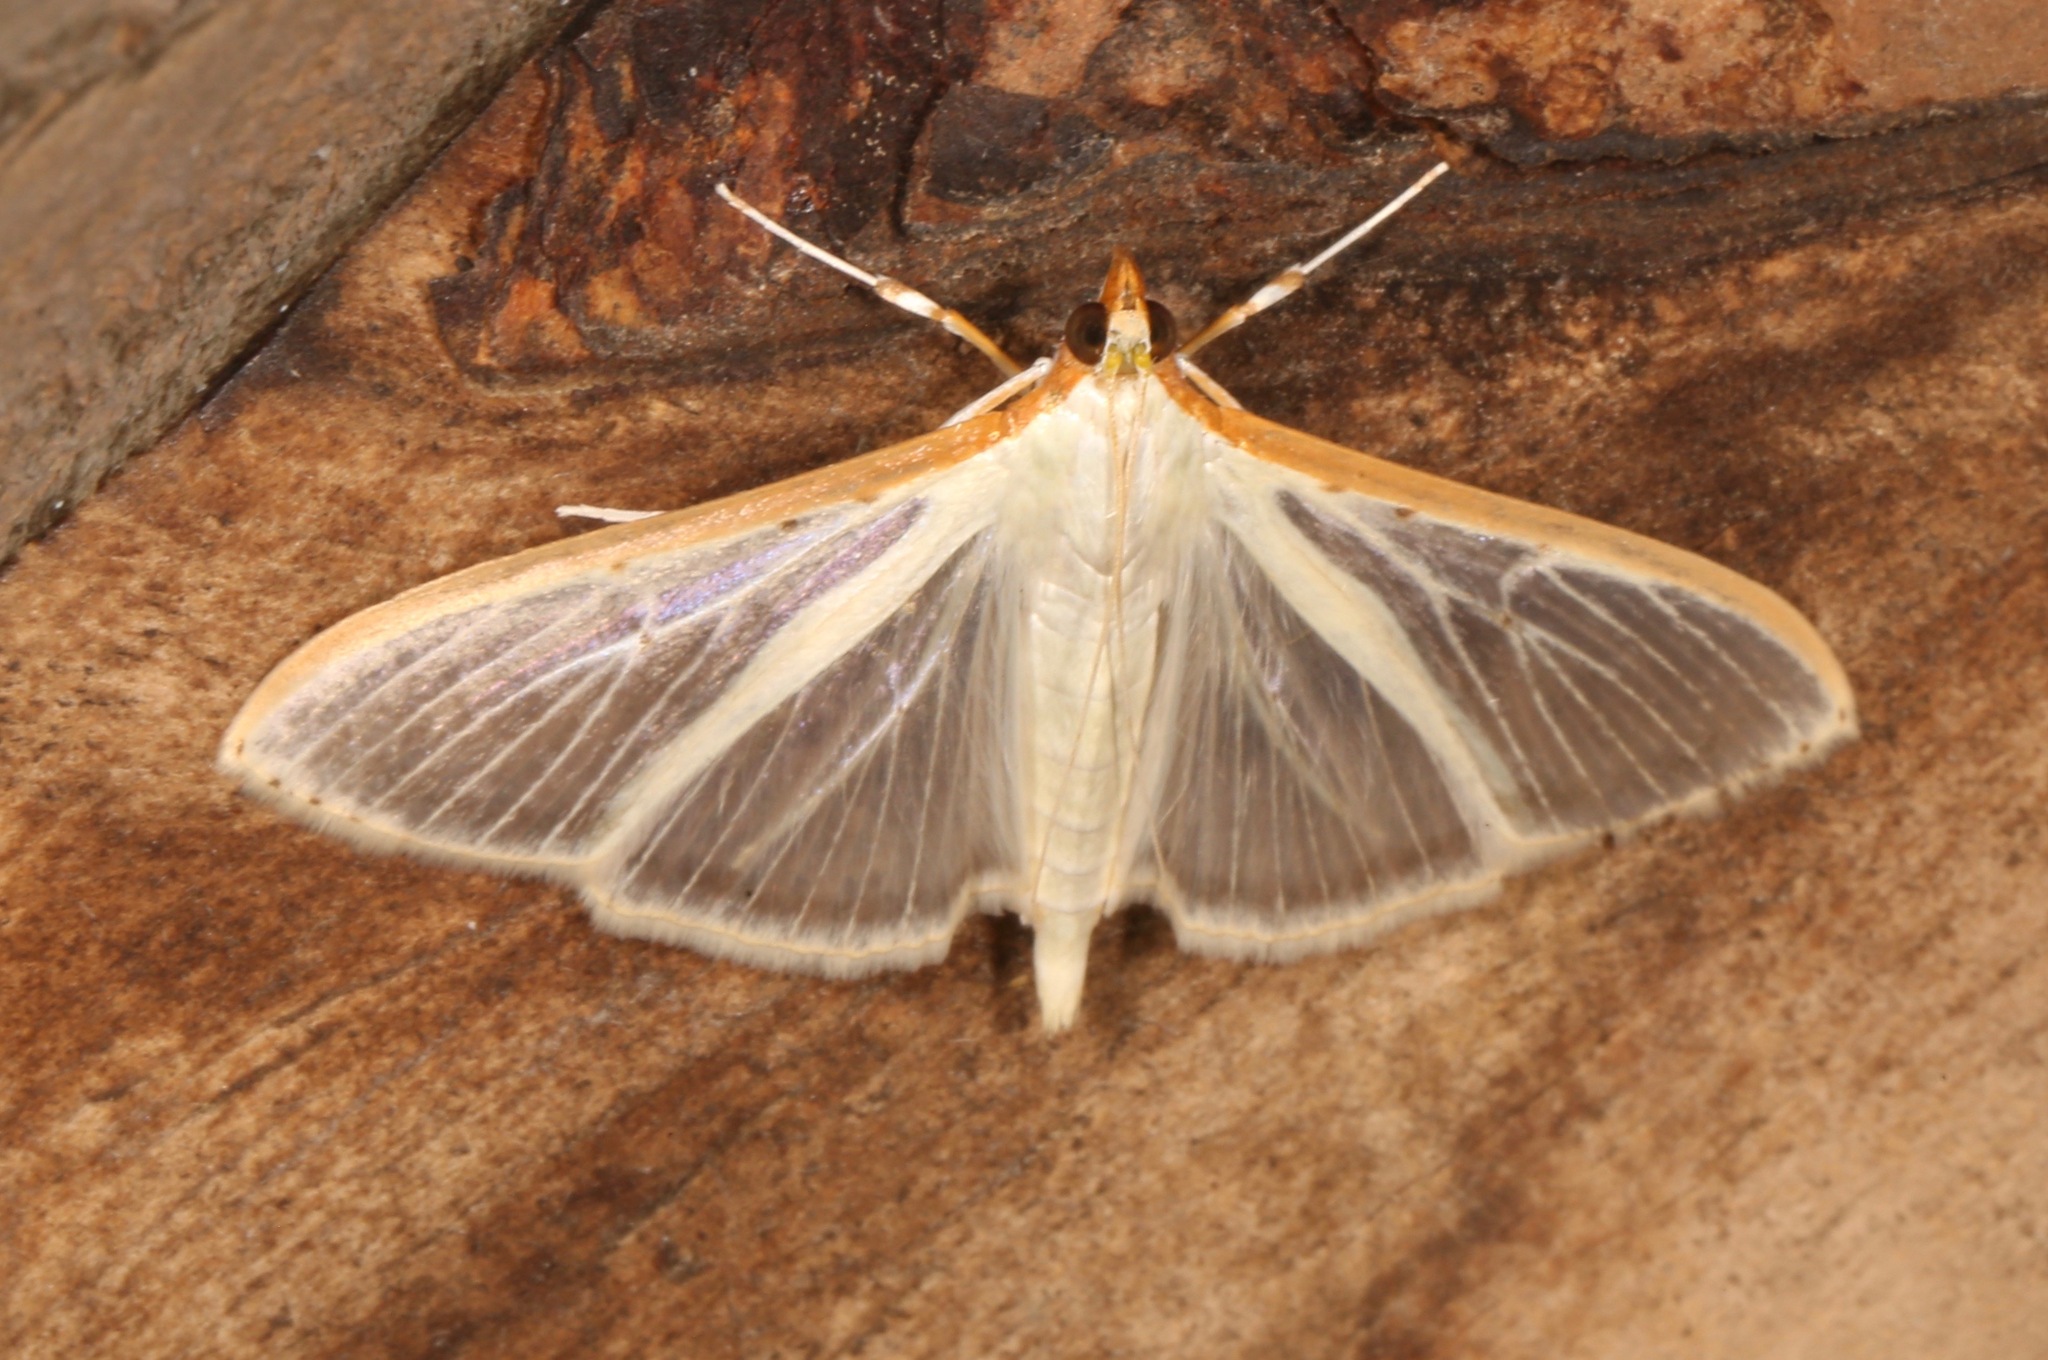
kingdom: Animalia
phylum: Arthropoda
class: Insecta
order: Lepidoptera
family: Crambidae
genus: Palpita
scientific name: Palpita quadristigmalis
